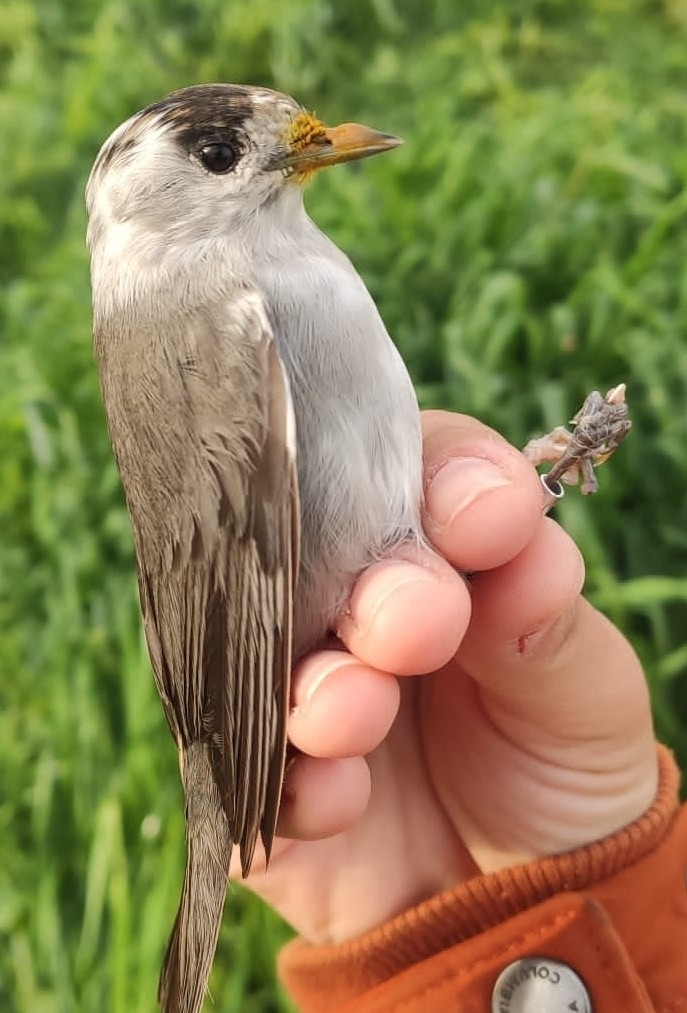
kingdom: Animalia
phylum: Chordata
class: Aves
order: Passeriformes
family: Sylviidae
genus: Sylvia
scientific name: Sylvia atricapilla
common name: Eurasian blackcap
